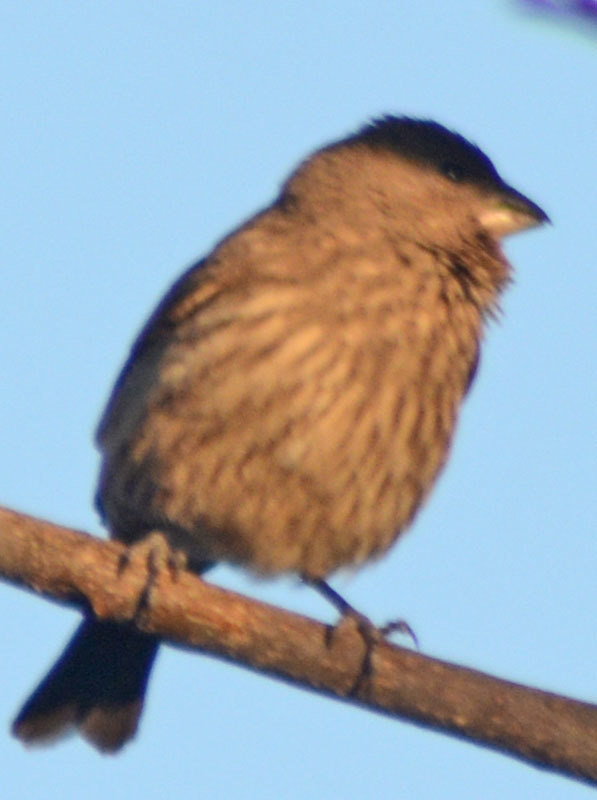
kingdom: Animalia
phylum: Chordata
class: Aves
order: Passeriformes
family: Fringillidae
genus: Haemorhous
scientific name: Haemorhous mexicanus
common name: House finch
